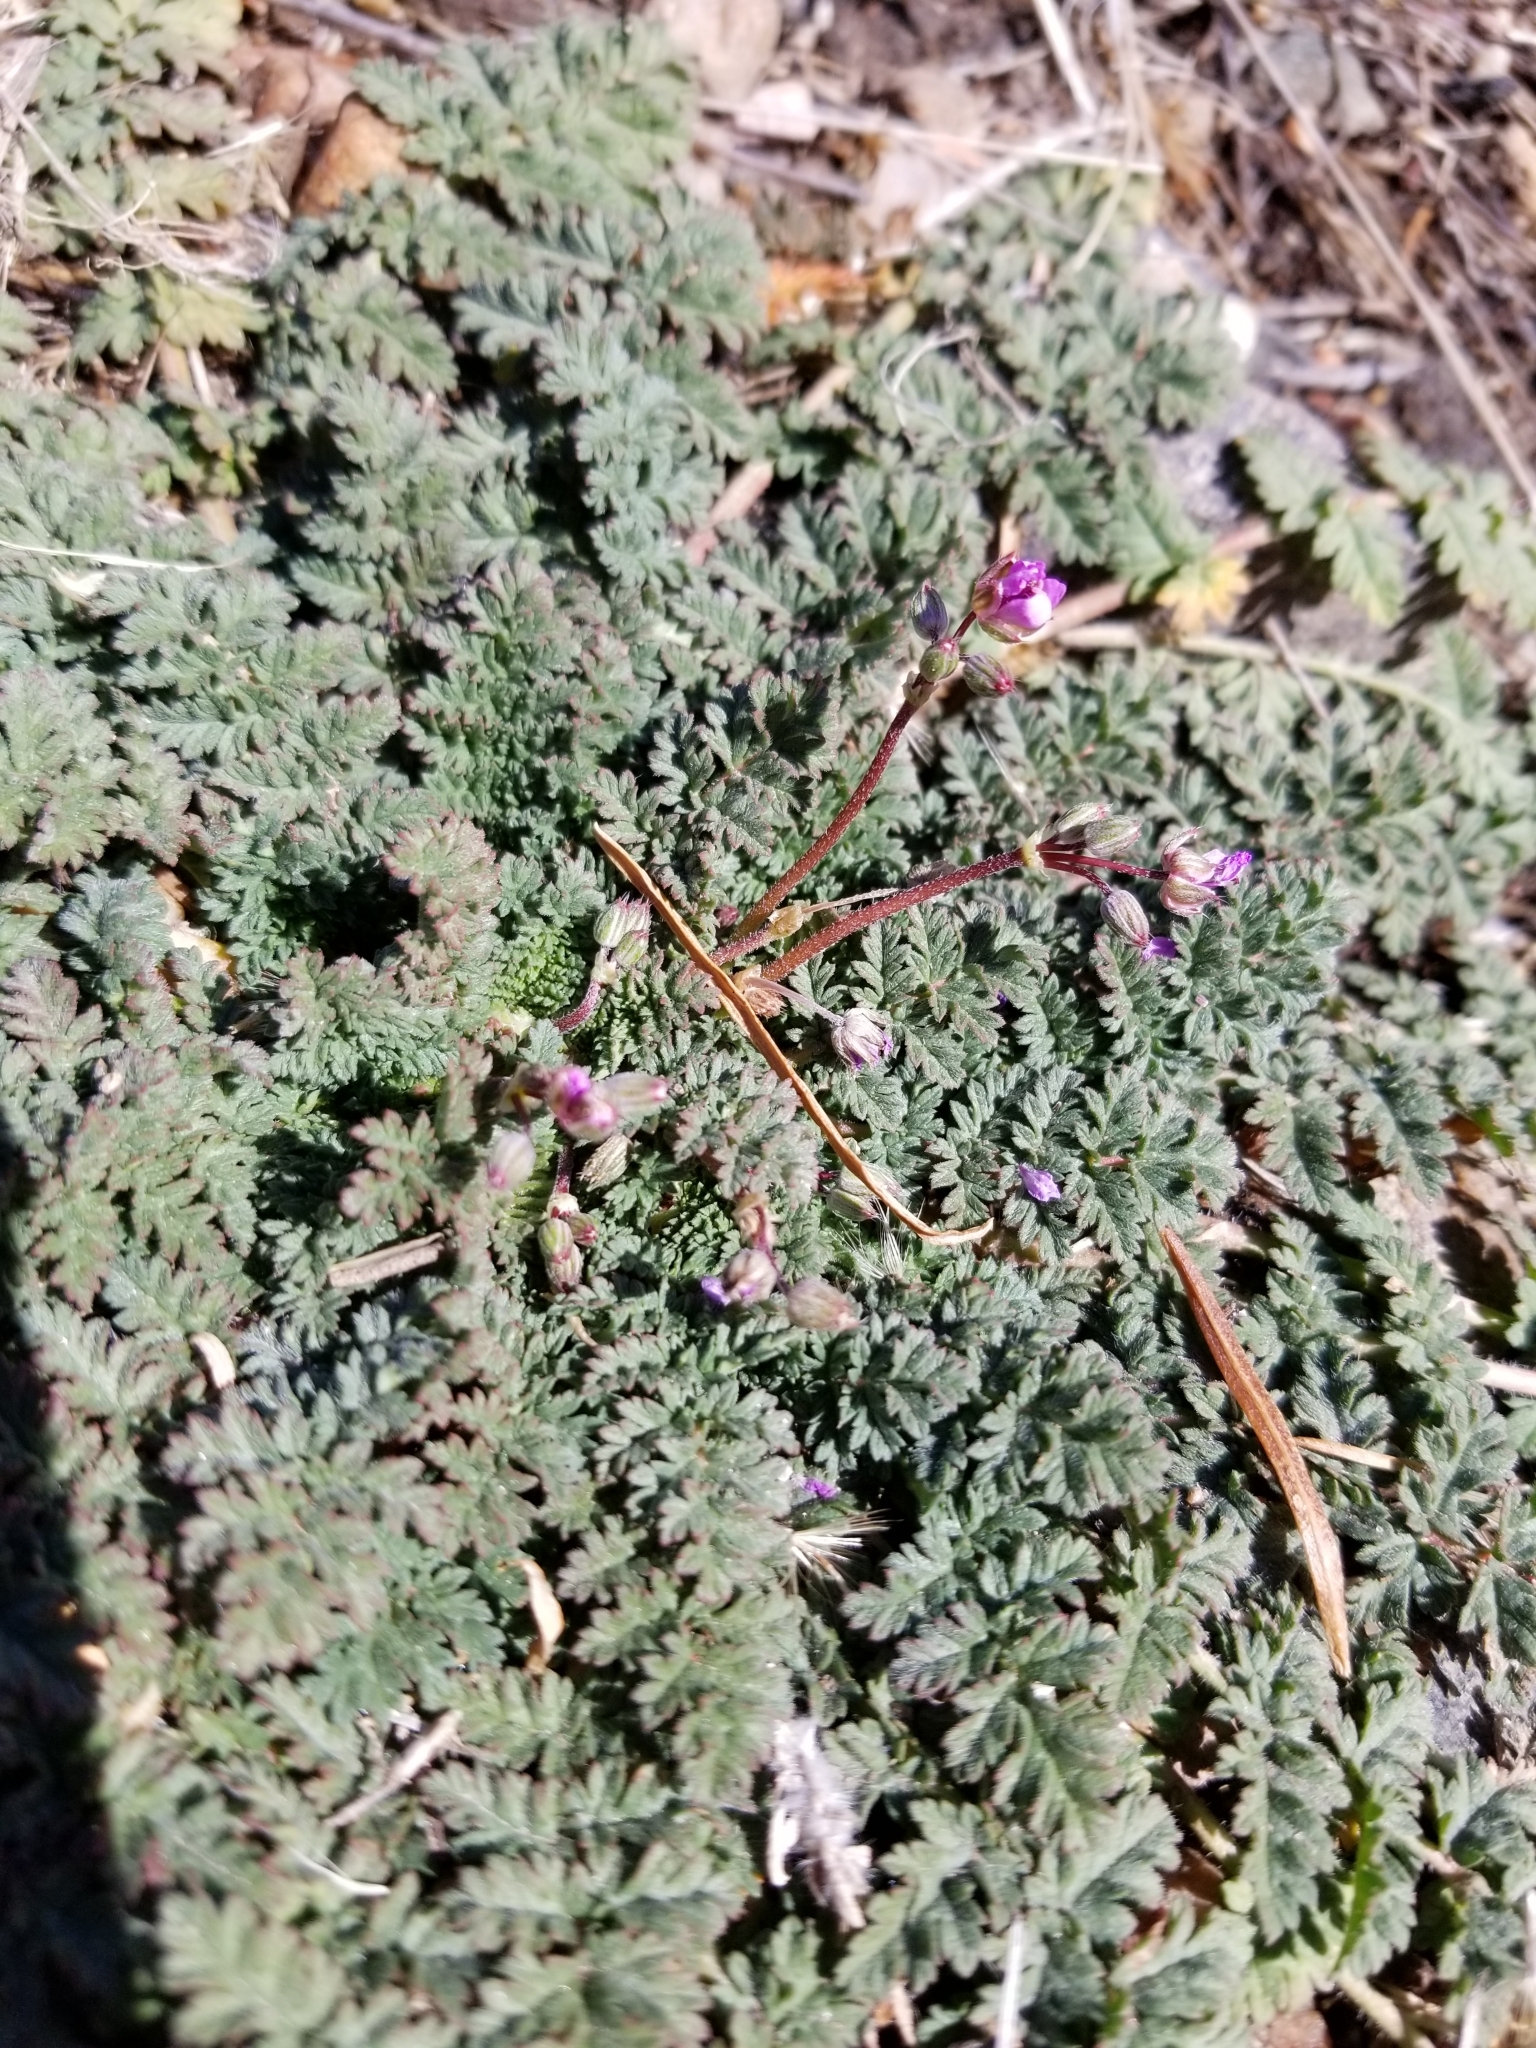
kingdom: Plantae
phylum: Tracheophyta
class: Magnoliopsida
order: Geraniales
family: Geraniaceae
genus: Erodium
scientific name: Erodium cicutarium
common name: Common stork's-bill
